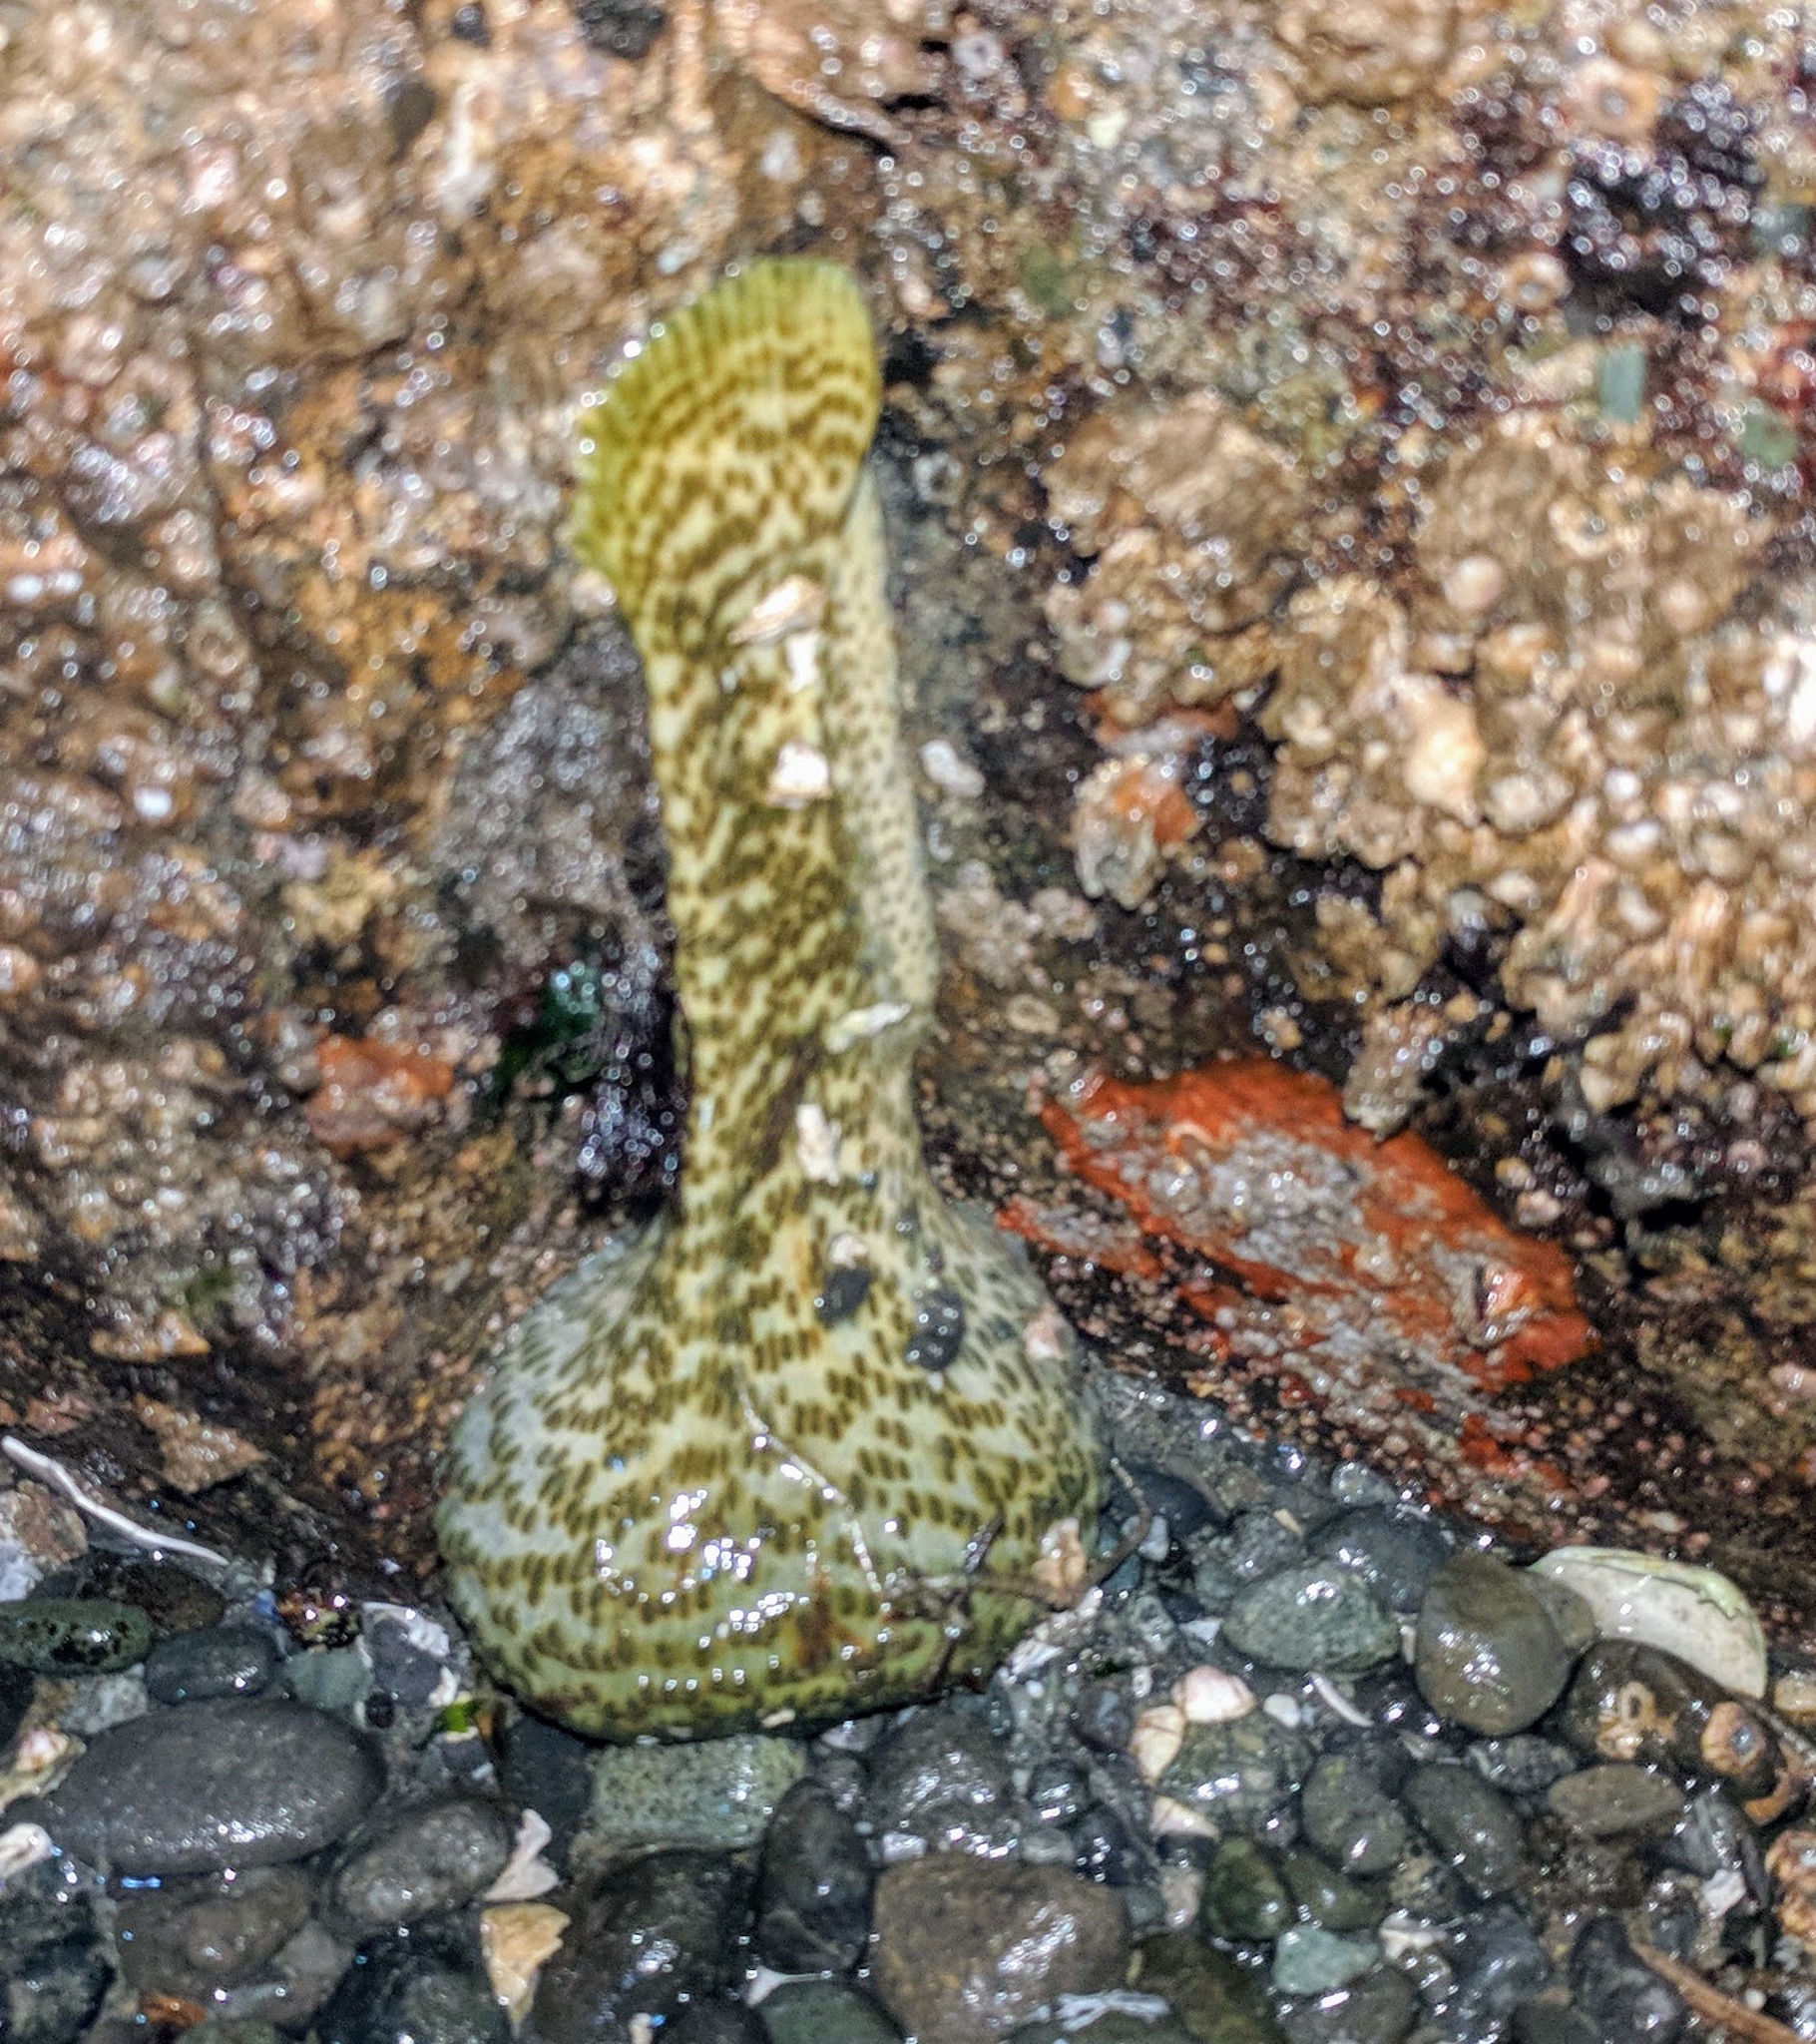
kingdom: Animalia
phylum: Cnidaria
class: Anthozoa
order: Actiniaria
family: Actiniidae
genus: Anthopleura
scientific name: Anthopleura elegantissima
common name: Clonal anemone
